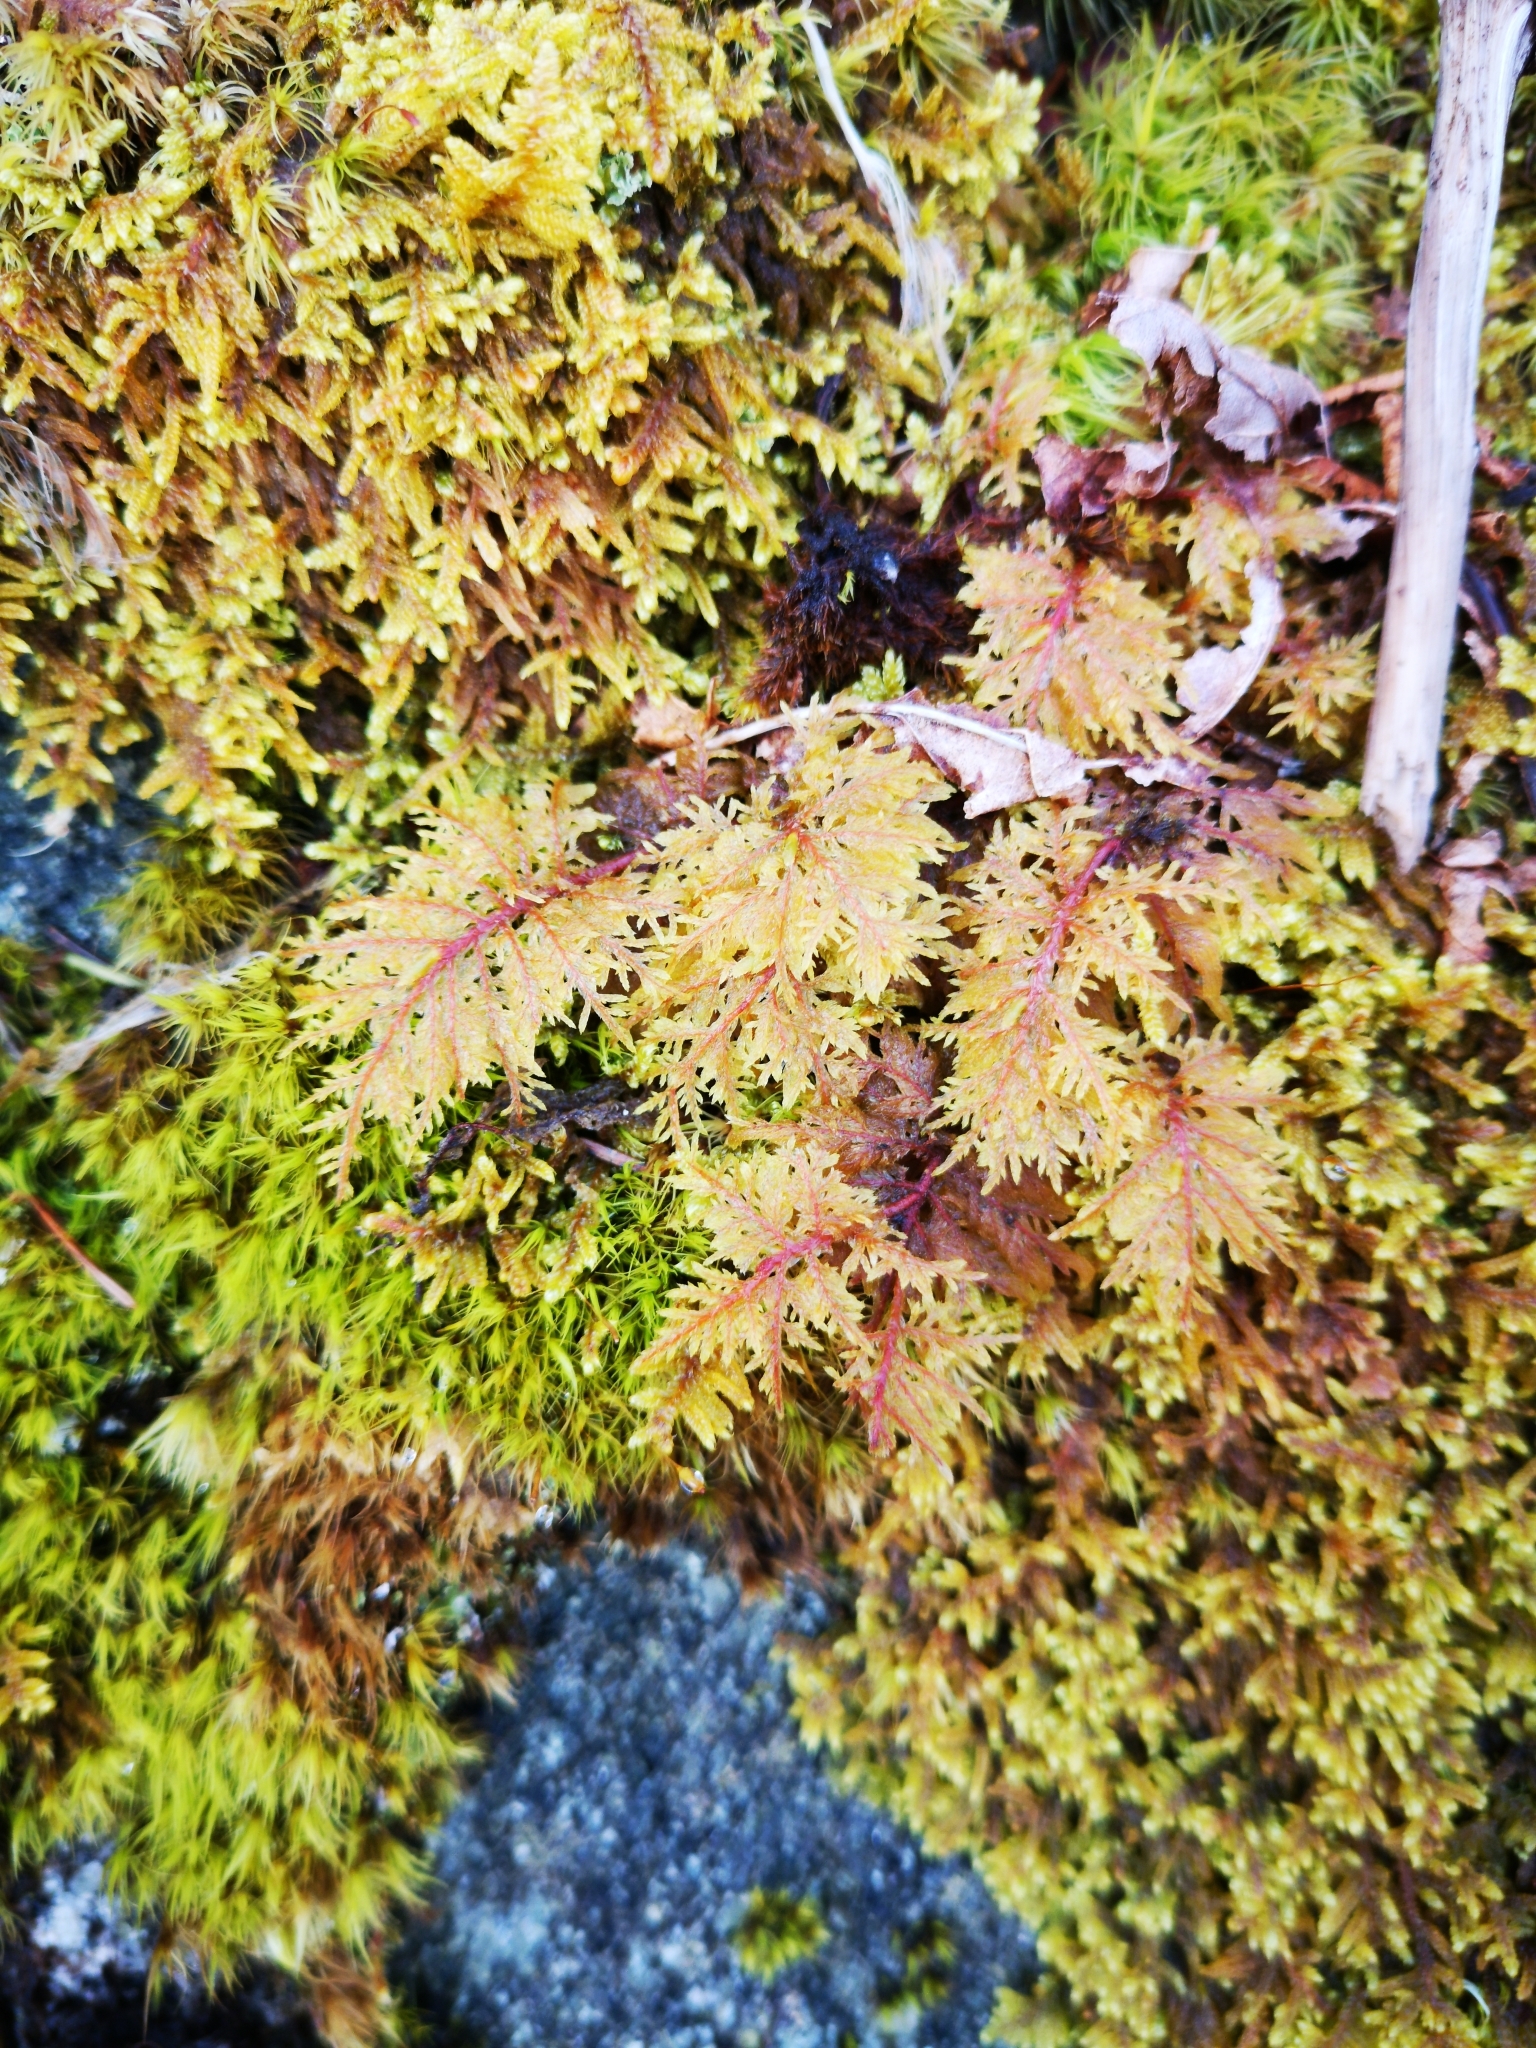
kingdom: Plantae
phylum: Bryophyta
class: Bryopsida
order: Hypnales
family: Hylocomiaceae
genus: Hylocomium
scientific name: Hylocomium splendens
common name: Stairstep moss
